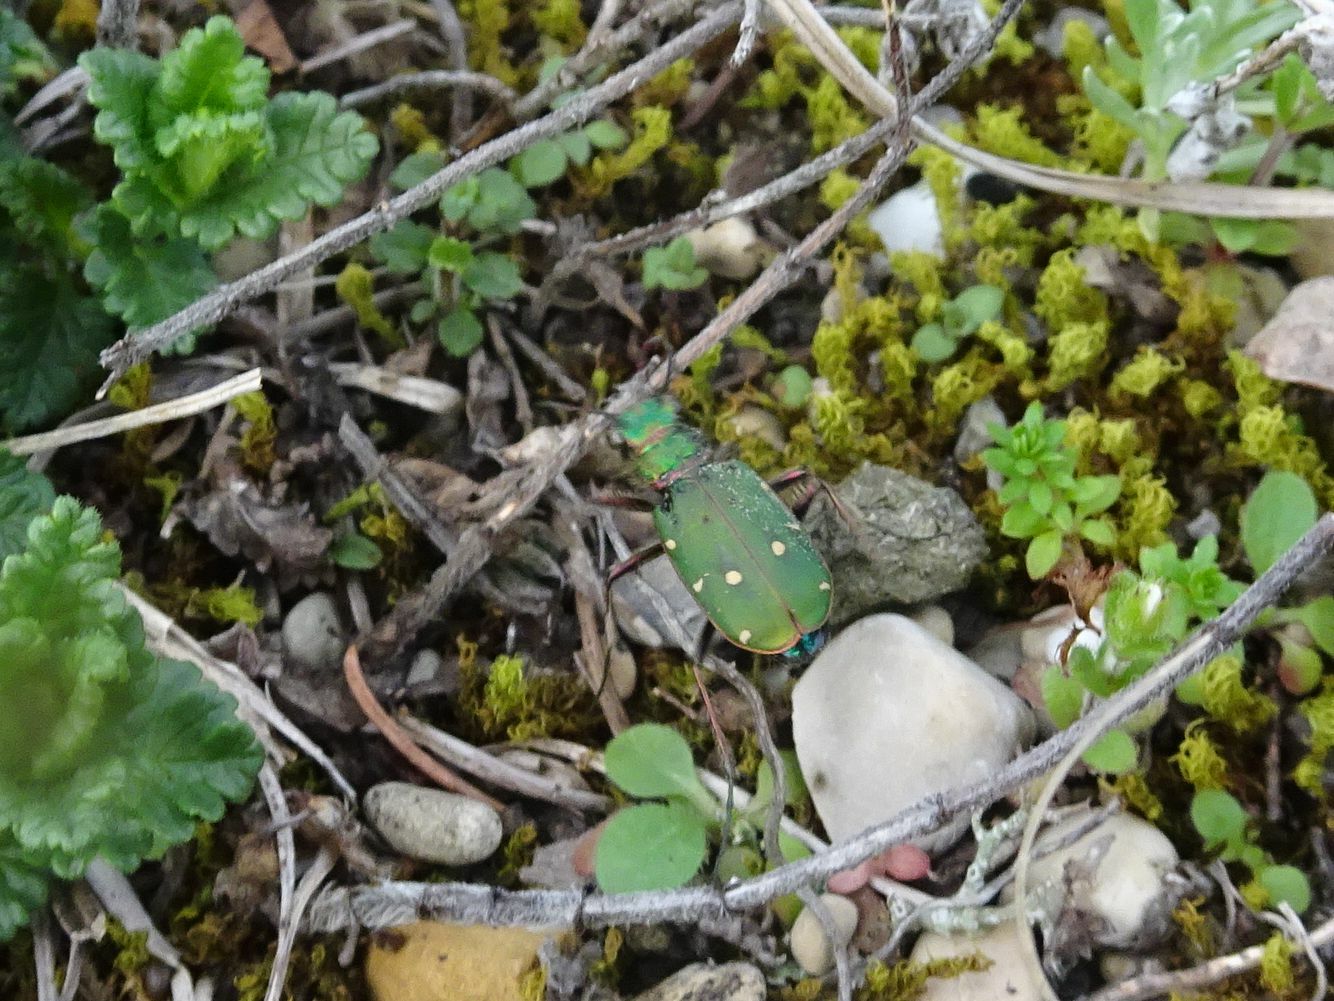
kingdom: Animalia
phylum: Arthropoda
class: Insecta
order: Coleoptera
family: Carabidae
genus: Cicindela
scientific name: Cicindela campestris
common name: Common tiger beetle
